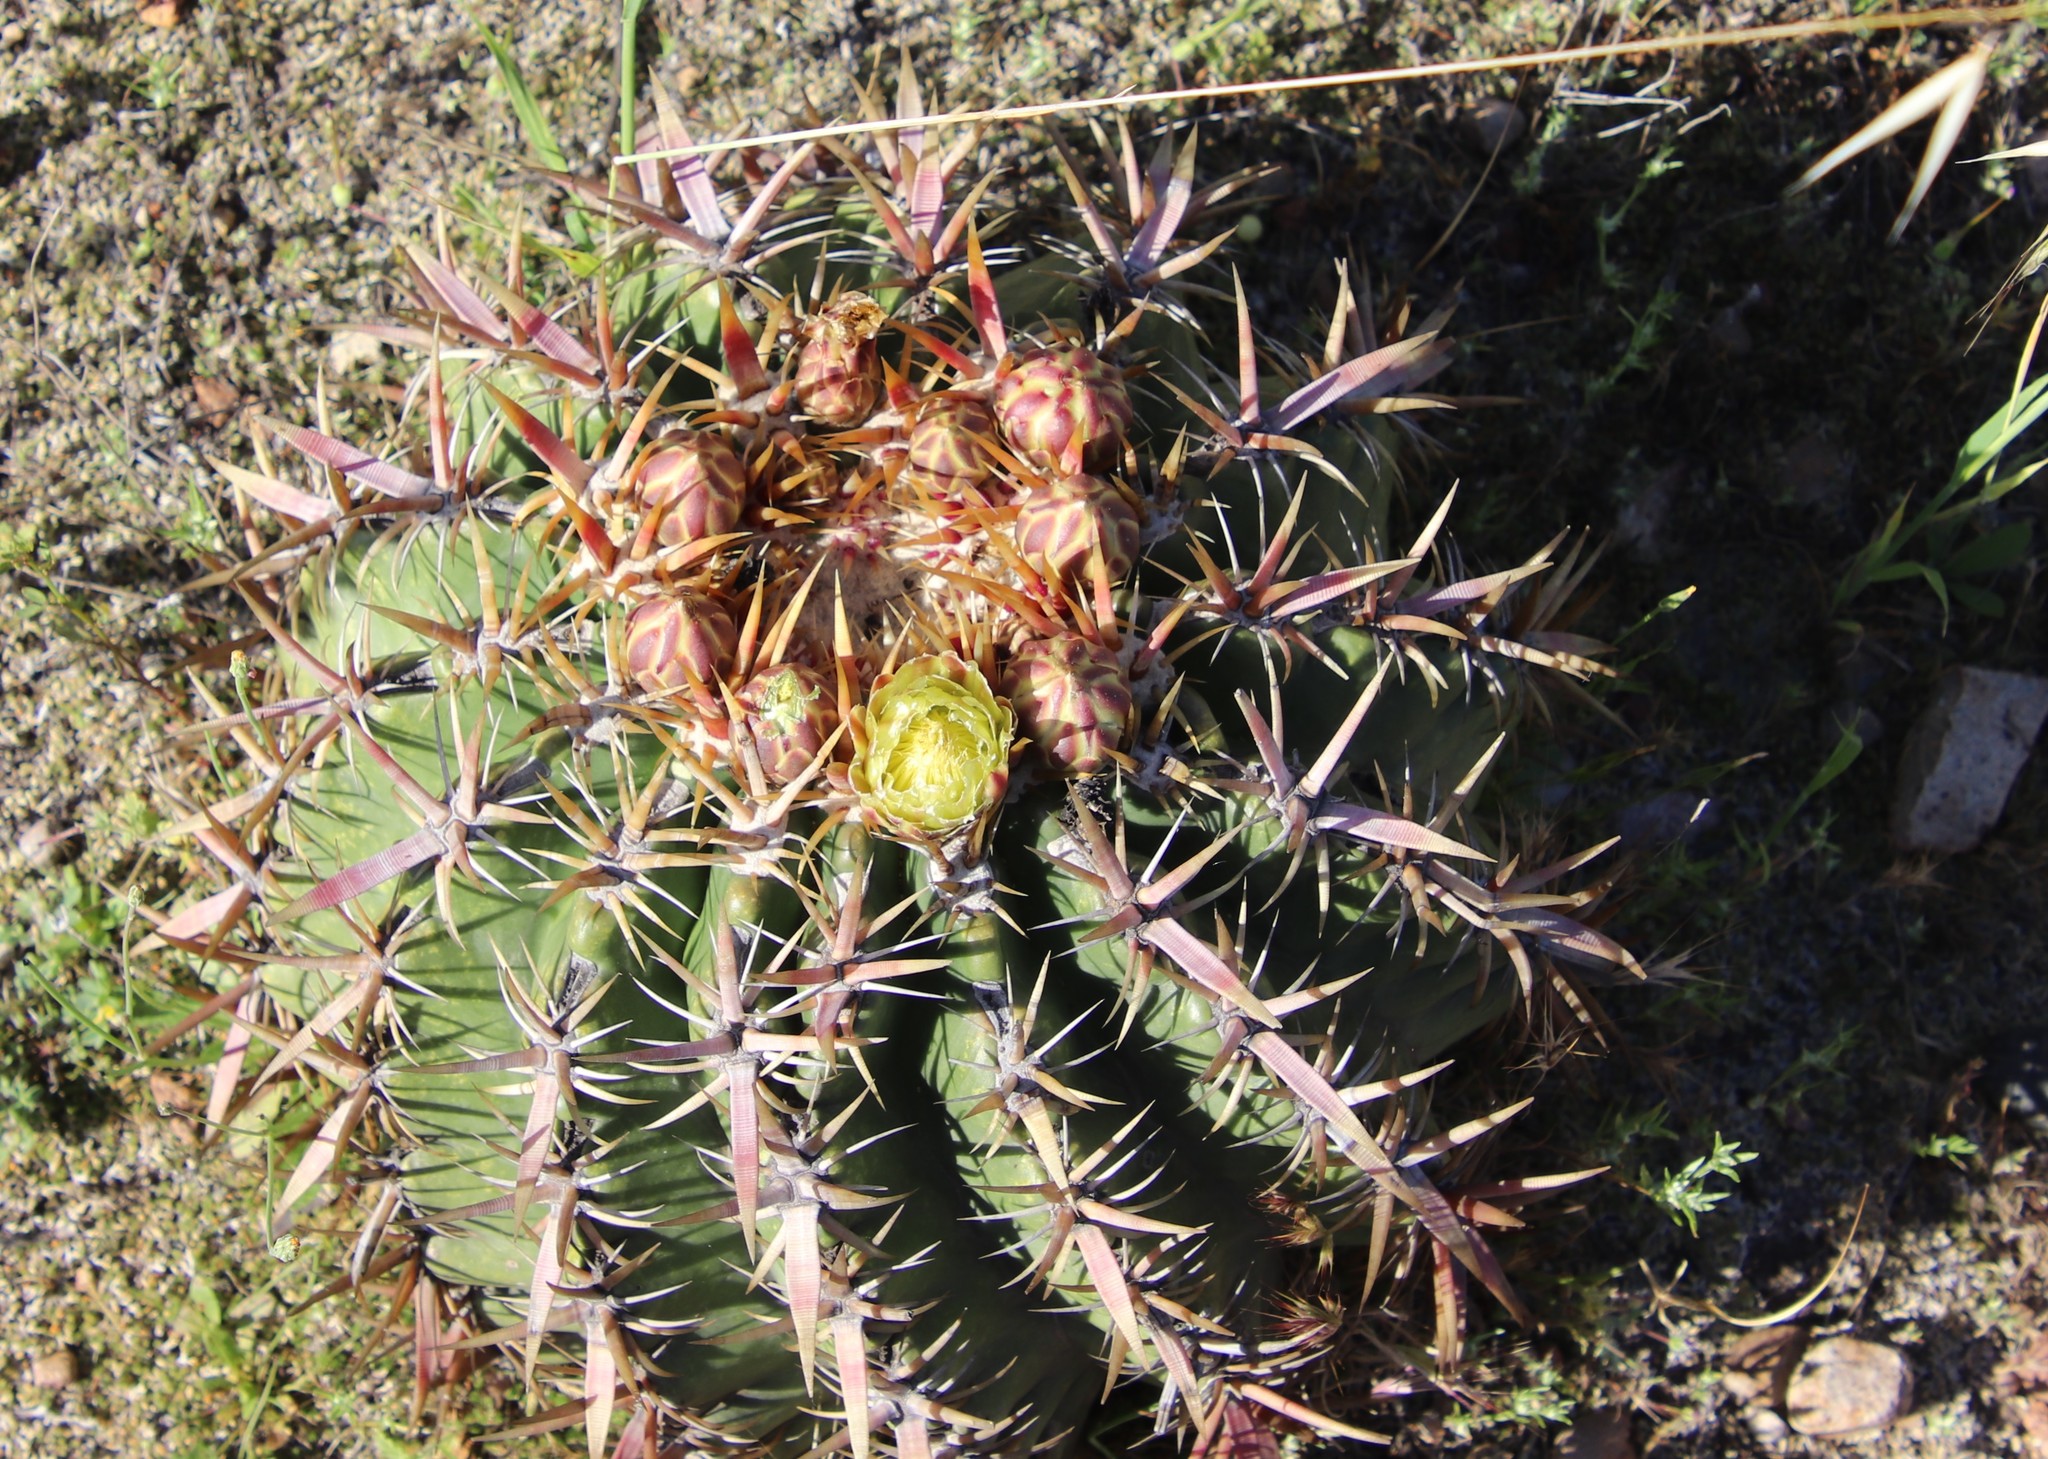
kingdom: Plantae
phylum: Tracheophyta
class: Magnoliopsida
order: Caryophyllales
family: Cactaceae
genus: Ferocactus
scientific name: Ferocactus viridescens
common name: San diego barrel cactus
